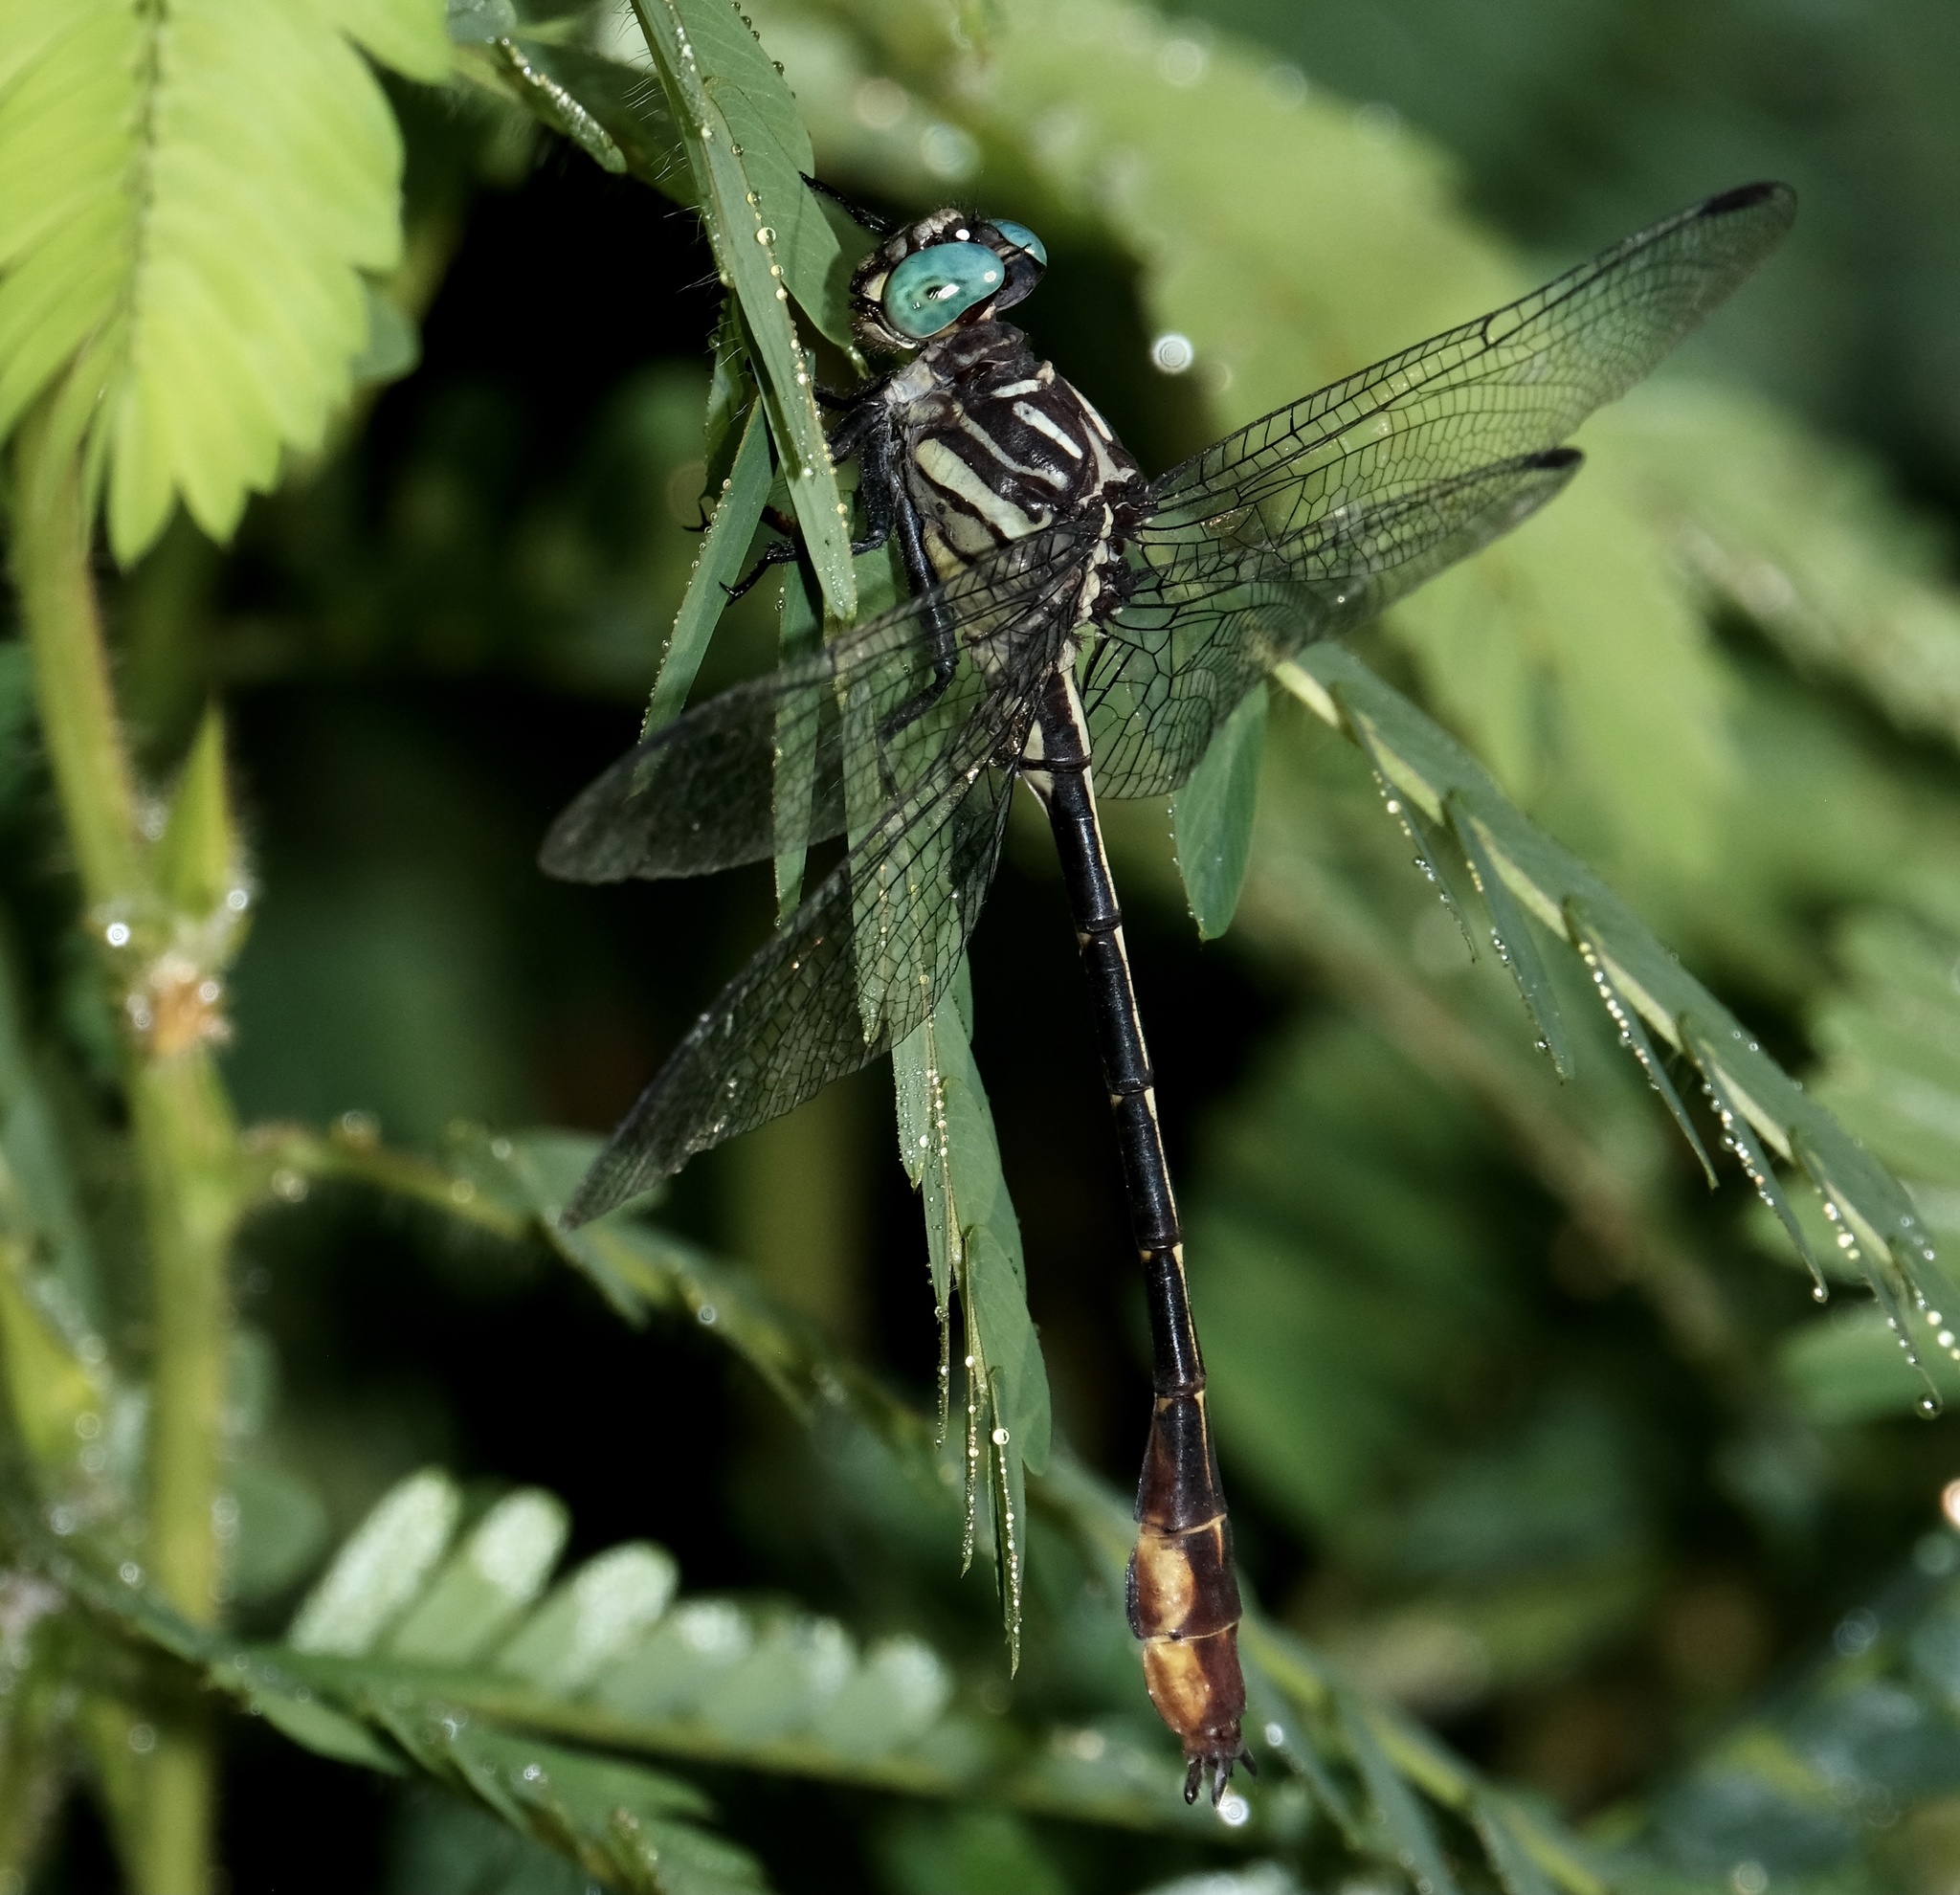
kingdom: Animalia
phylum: Arthropoda
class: Insecta
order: Odonata
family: Gomphidae
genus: Stylurus
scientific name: Stylurus laurae
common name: Laura's clubtail
